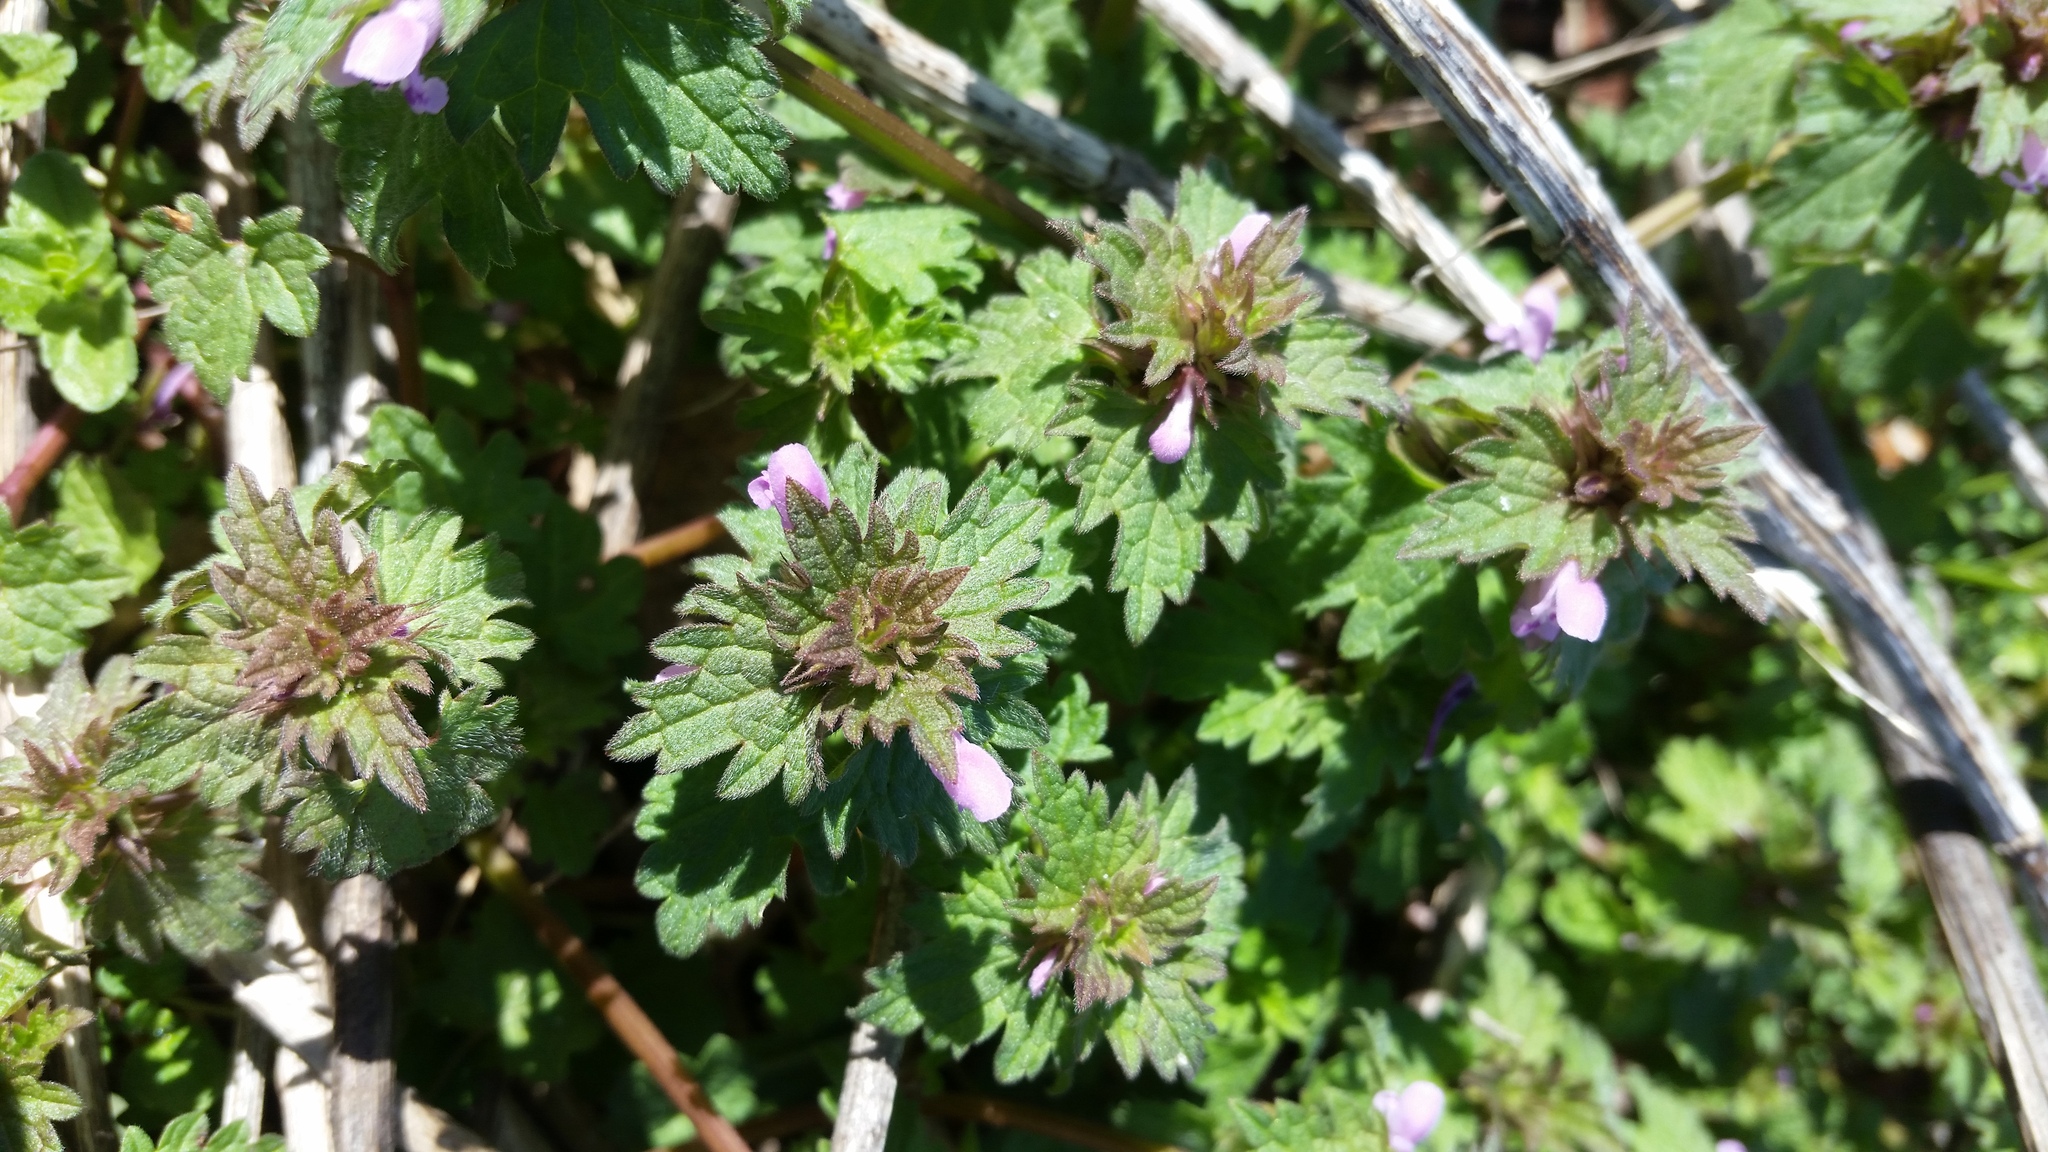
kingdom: Plantae
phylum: Tracheophyta
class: Magnoliopsida
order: Lamiales
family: Lamiaceae
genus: Lamium
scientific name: Lamium hybridum
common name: Cut-leaved dead-nettle
